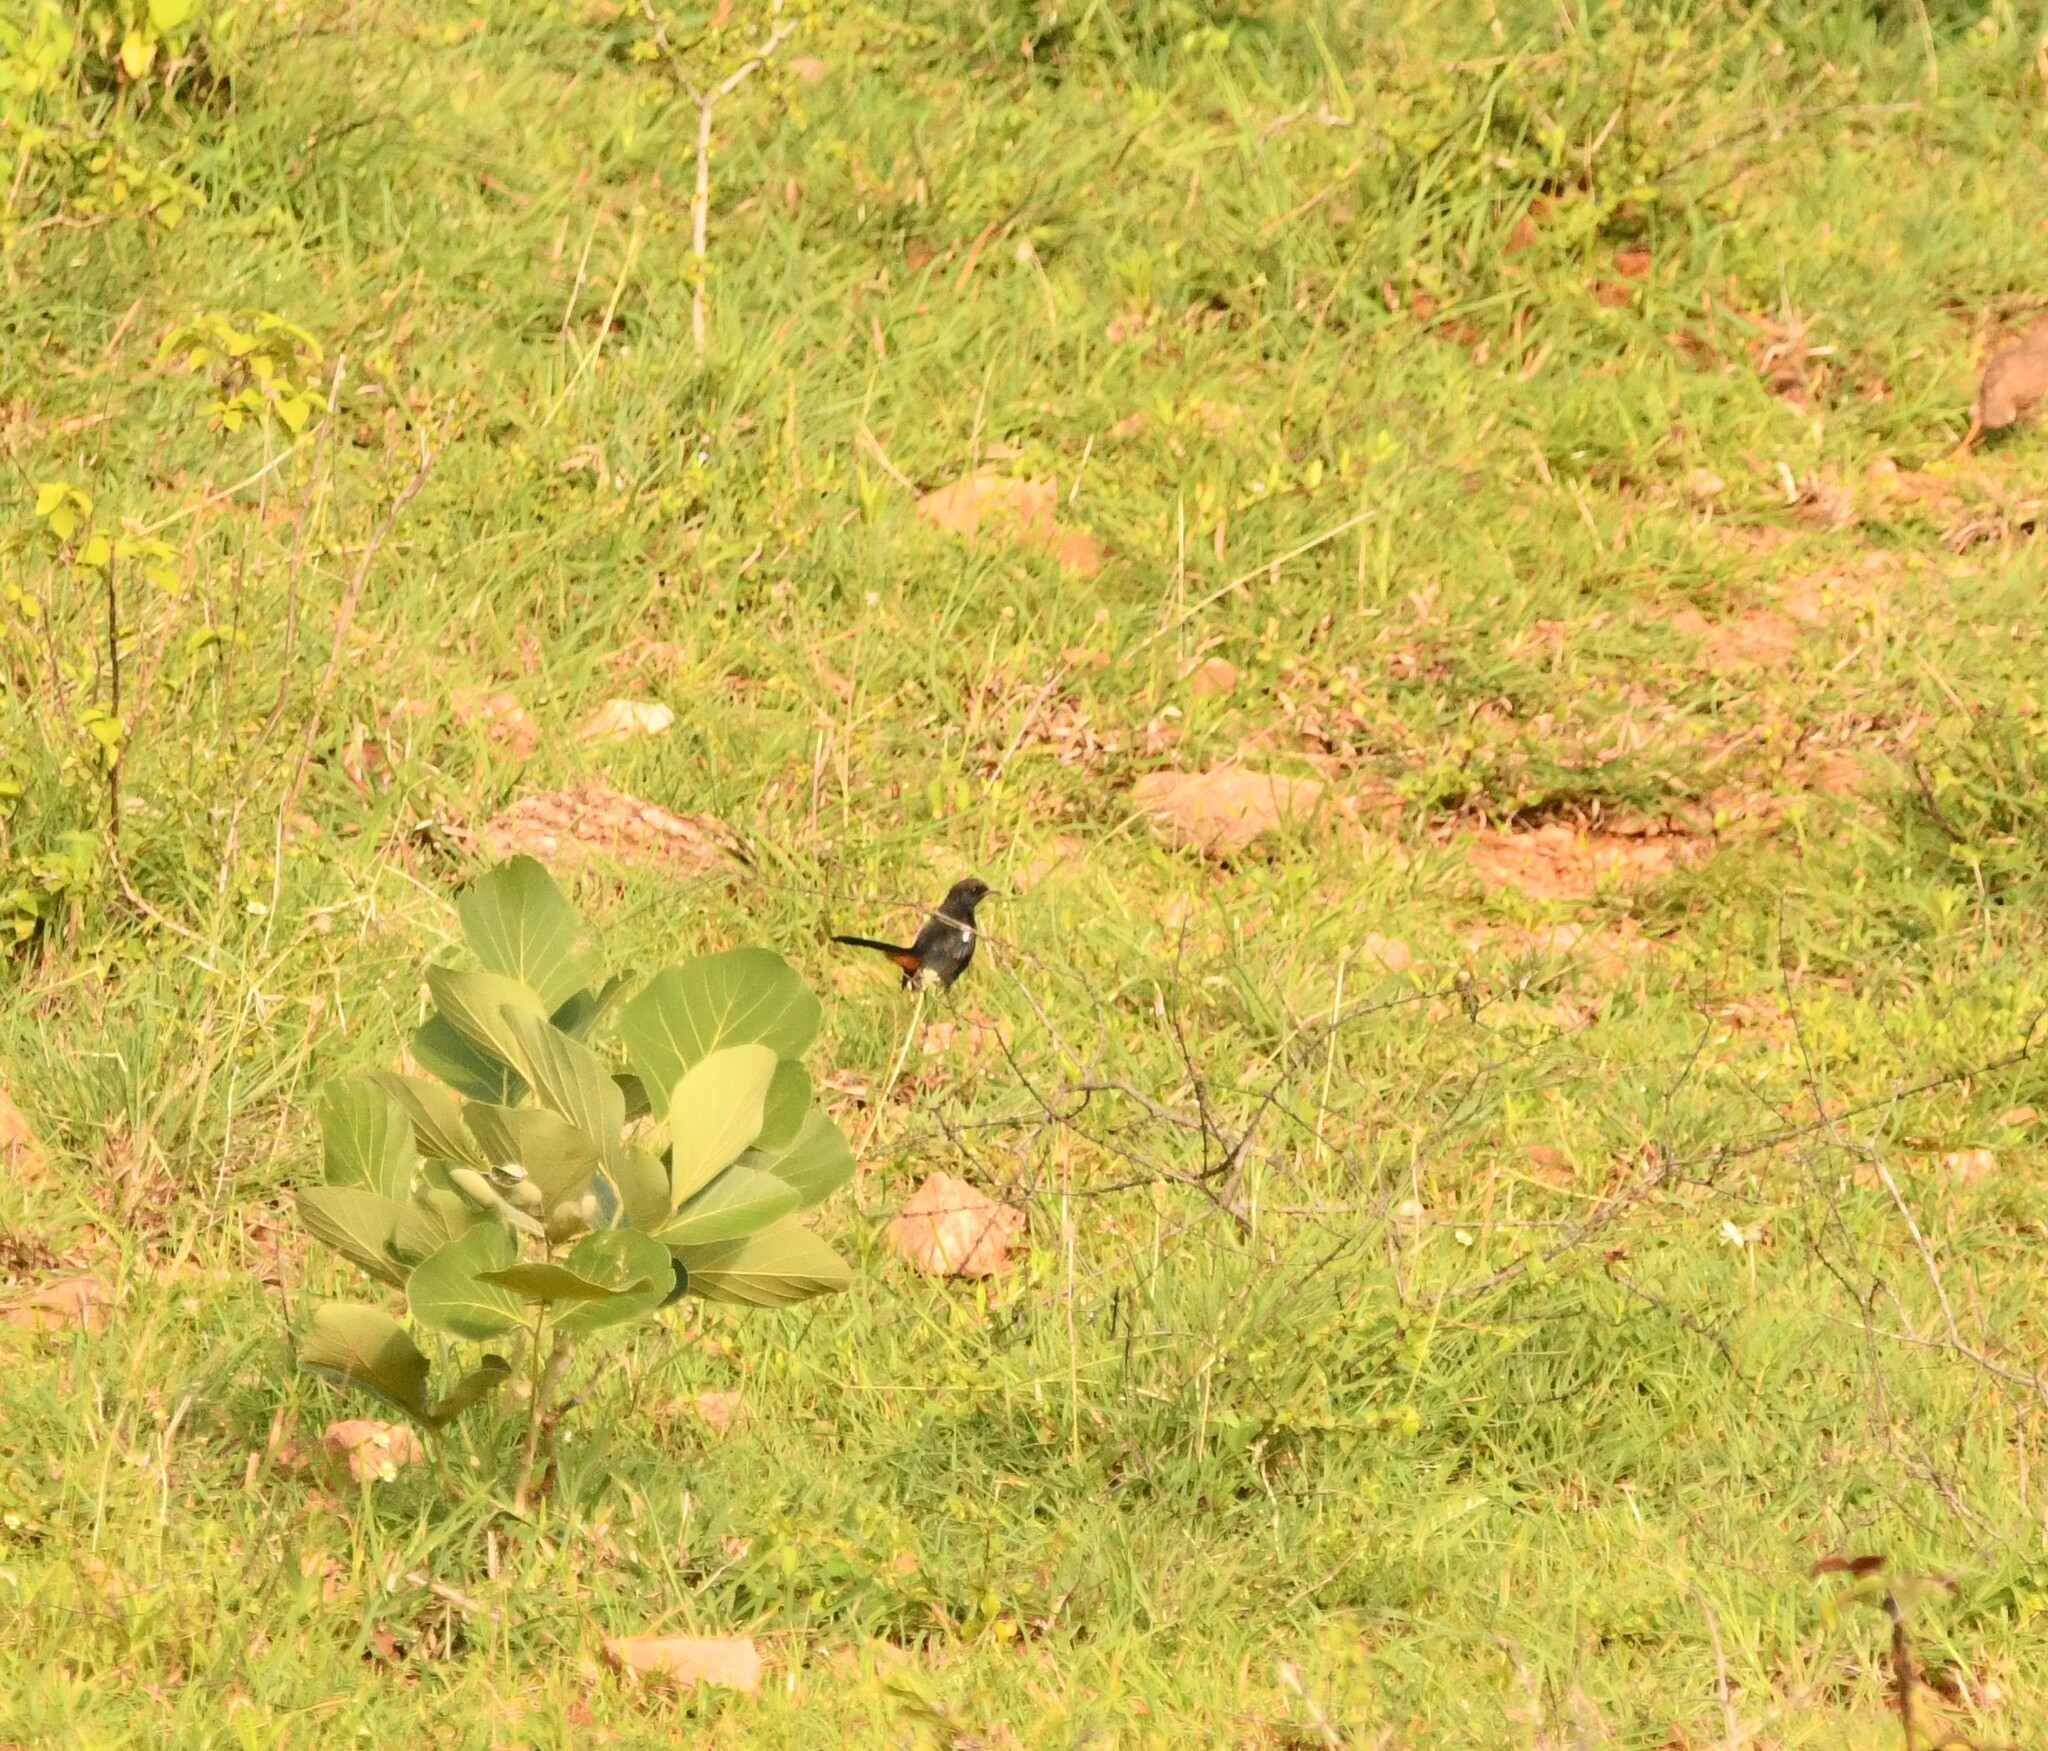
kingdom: Animalia
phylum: Chordata
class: Aves
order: Passeriformes
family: Muscicapidae
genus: Saxicoloides
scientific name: Saxicoloides fulicatus
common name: Indian robin
